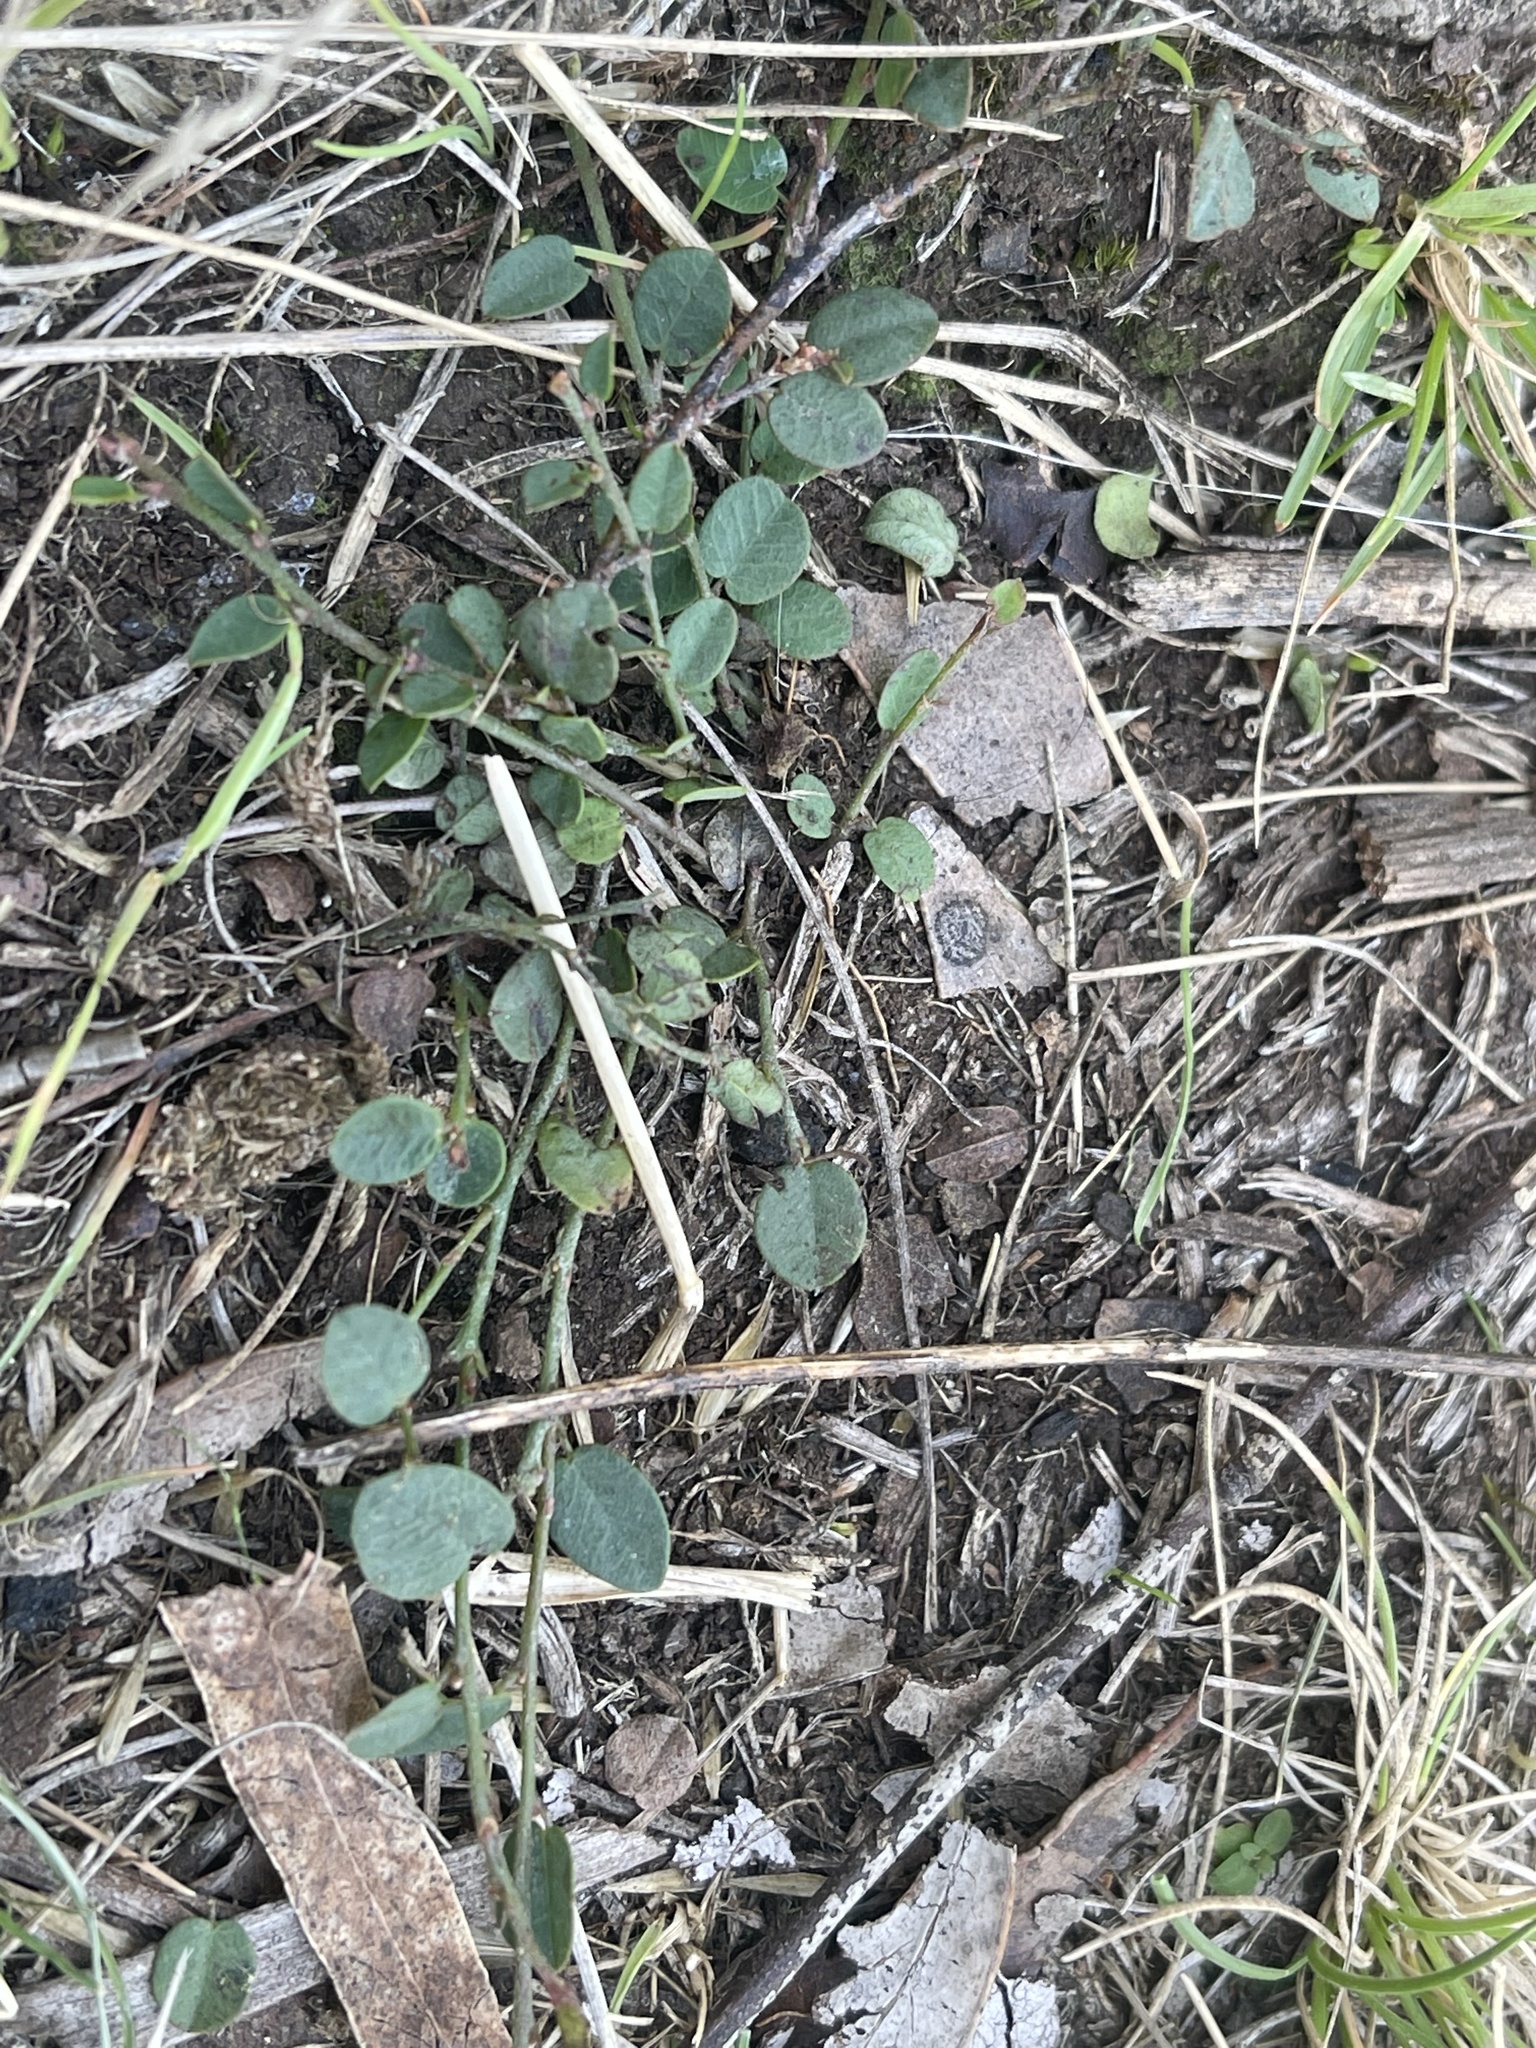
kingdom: Plantae
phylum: Tracheophyta
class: Magnoliopsida
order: Fabales
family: Fabaceae
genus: Bossiaea
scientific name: Bossiaea prostrata
